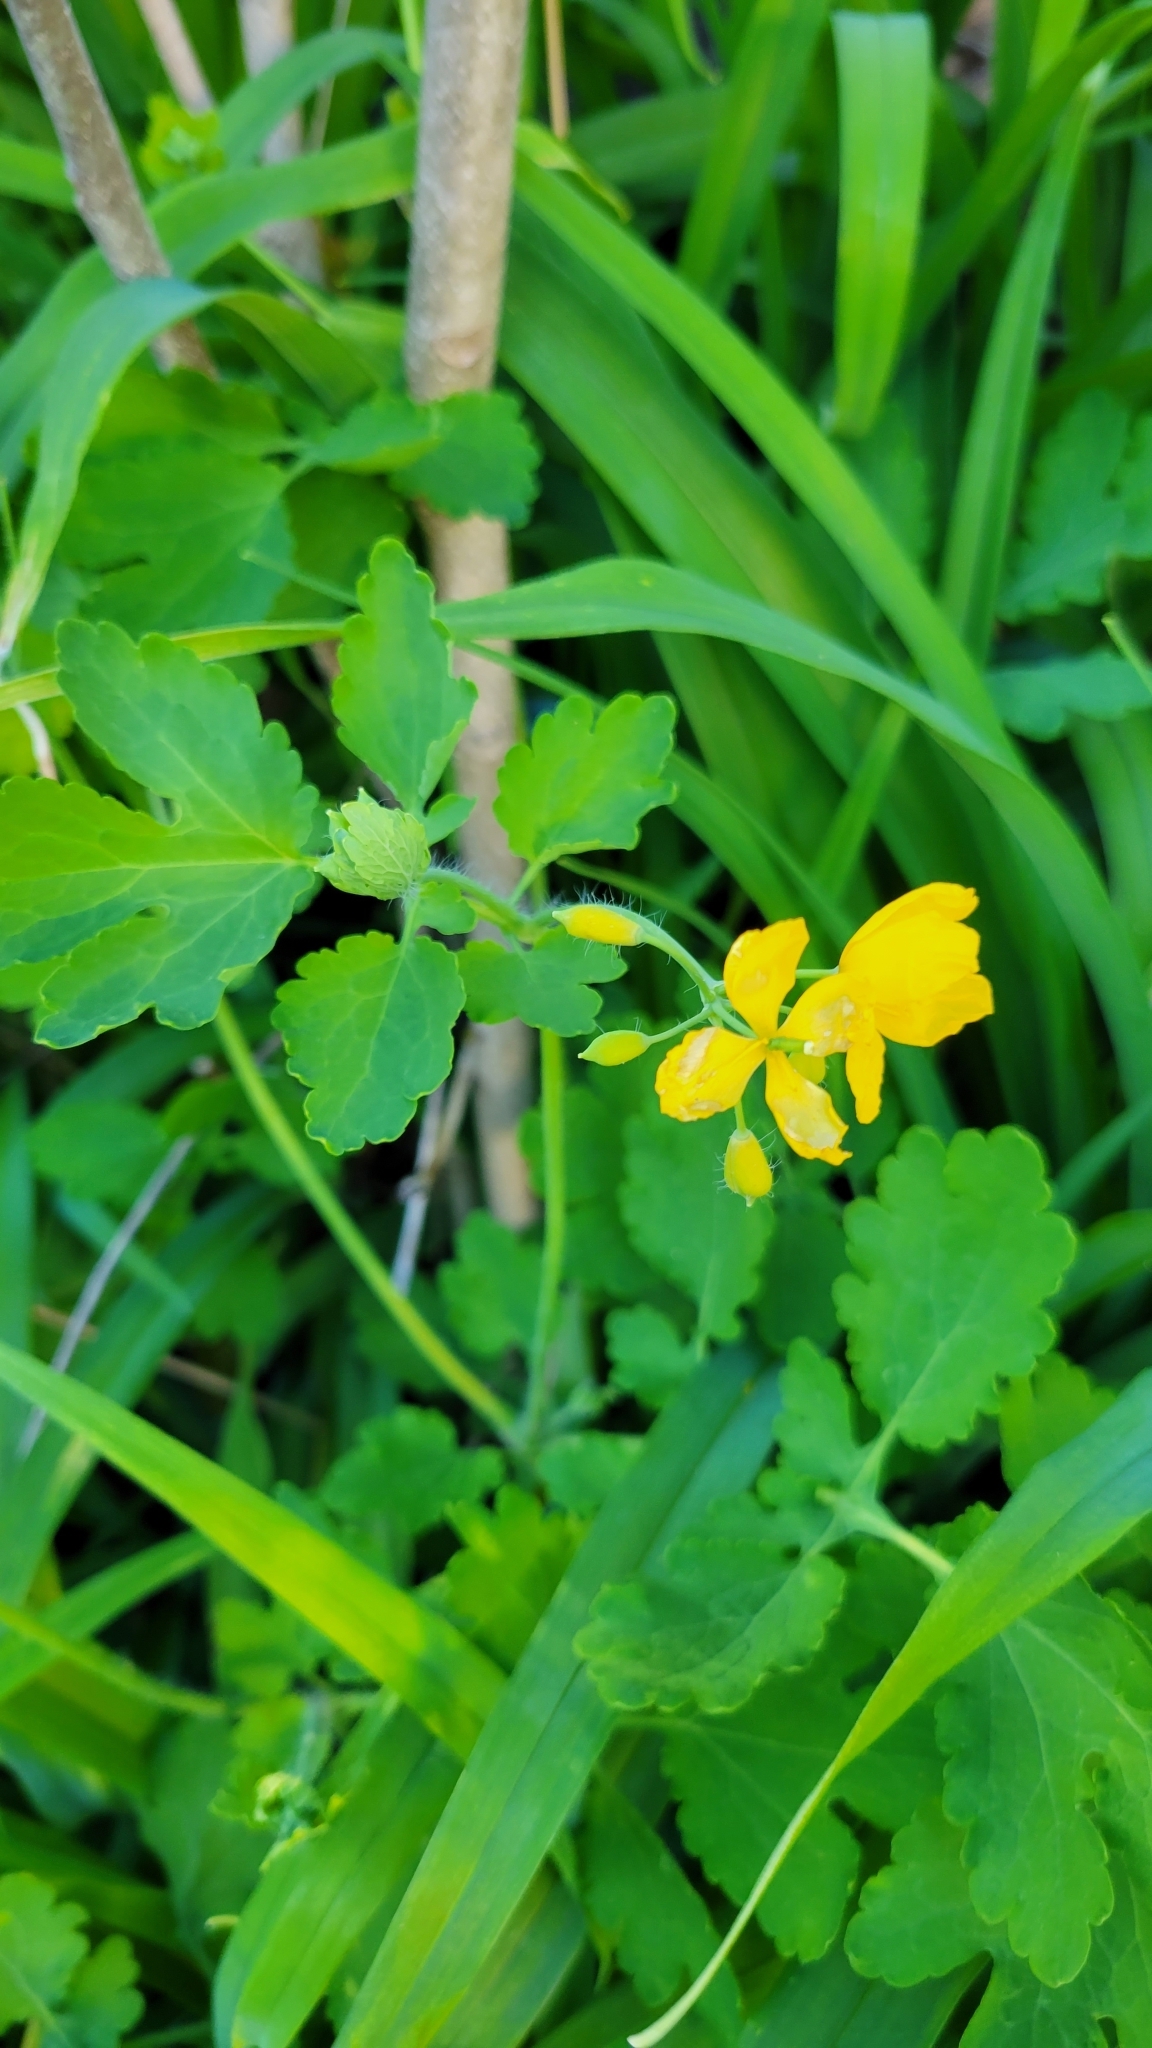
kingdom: Plantae
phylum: Tracheophyta
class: Magnoliopsida
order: Ranunculales
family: Papaveraceae
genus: Chelidonium
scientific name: Chelidonium majus
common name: Greater celandine
